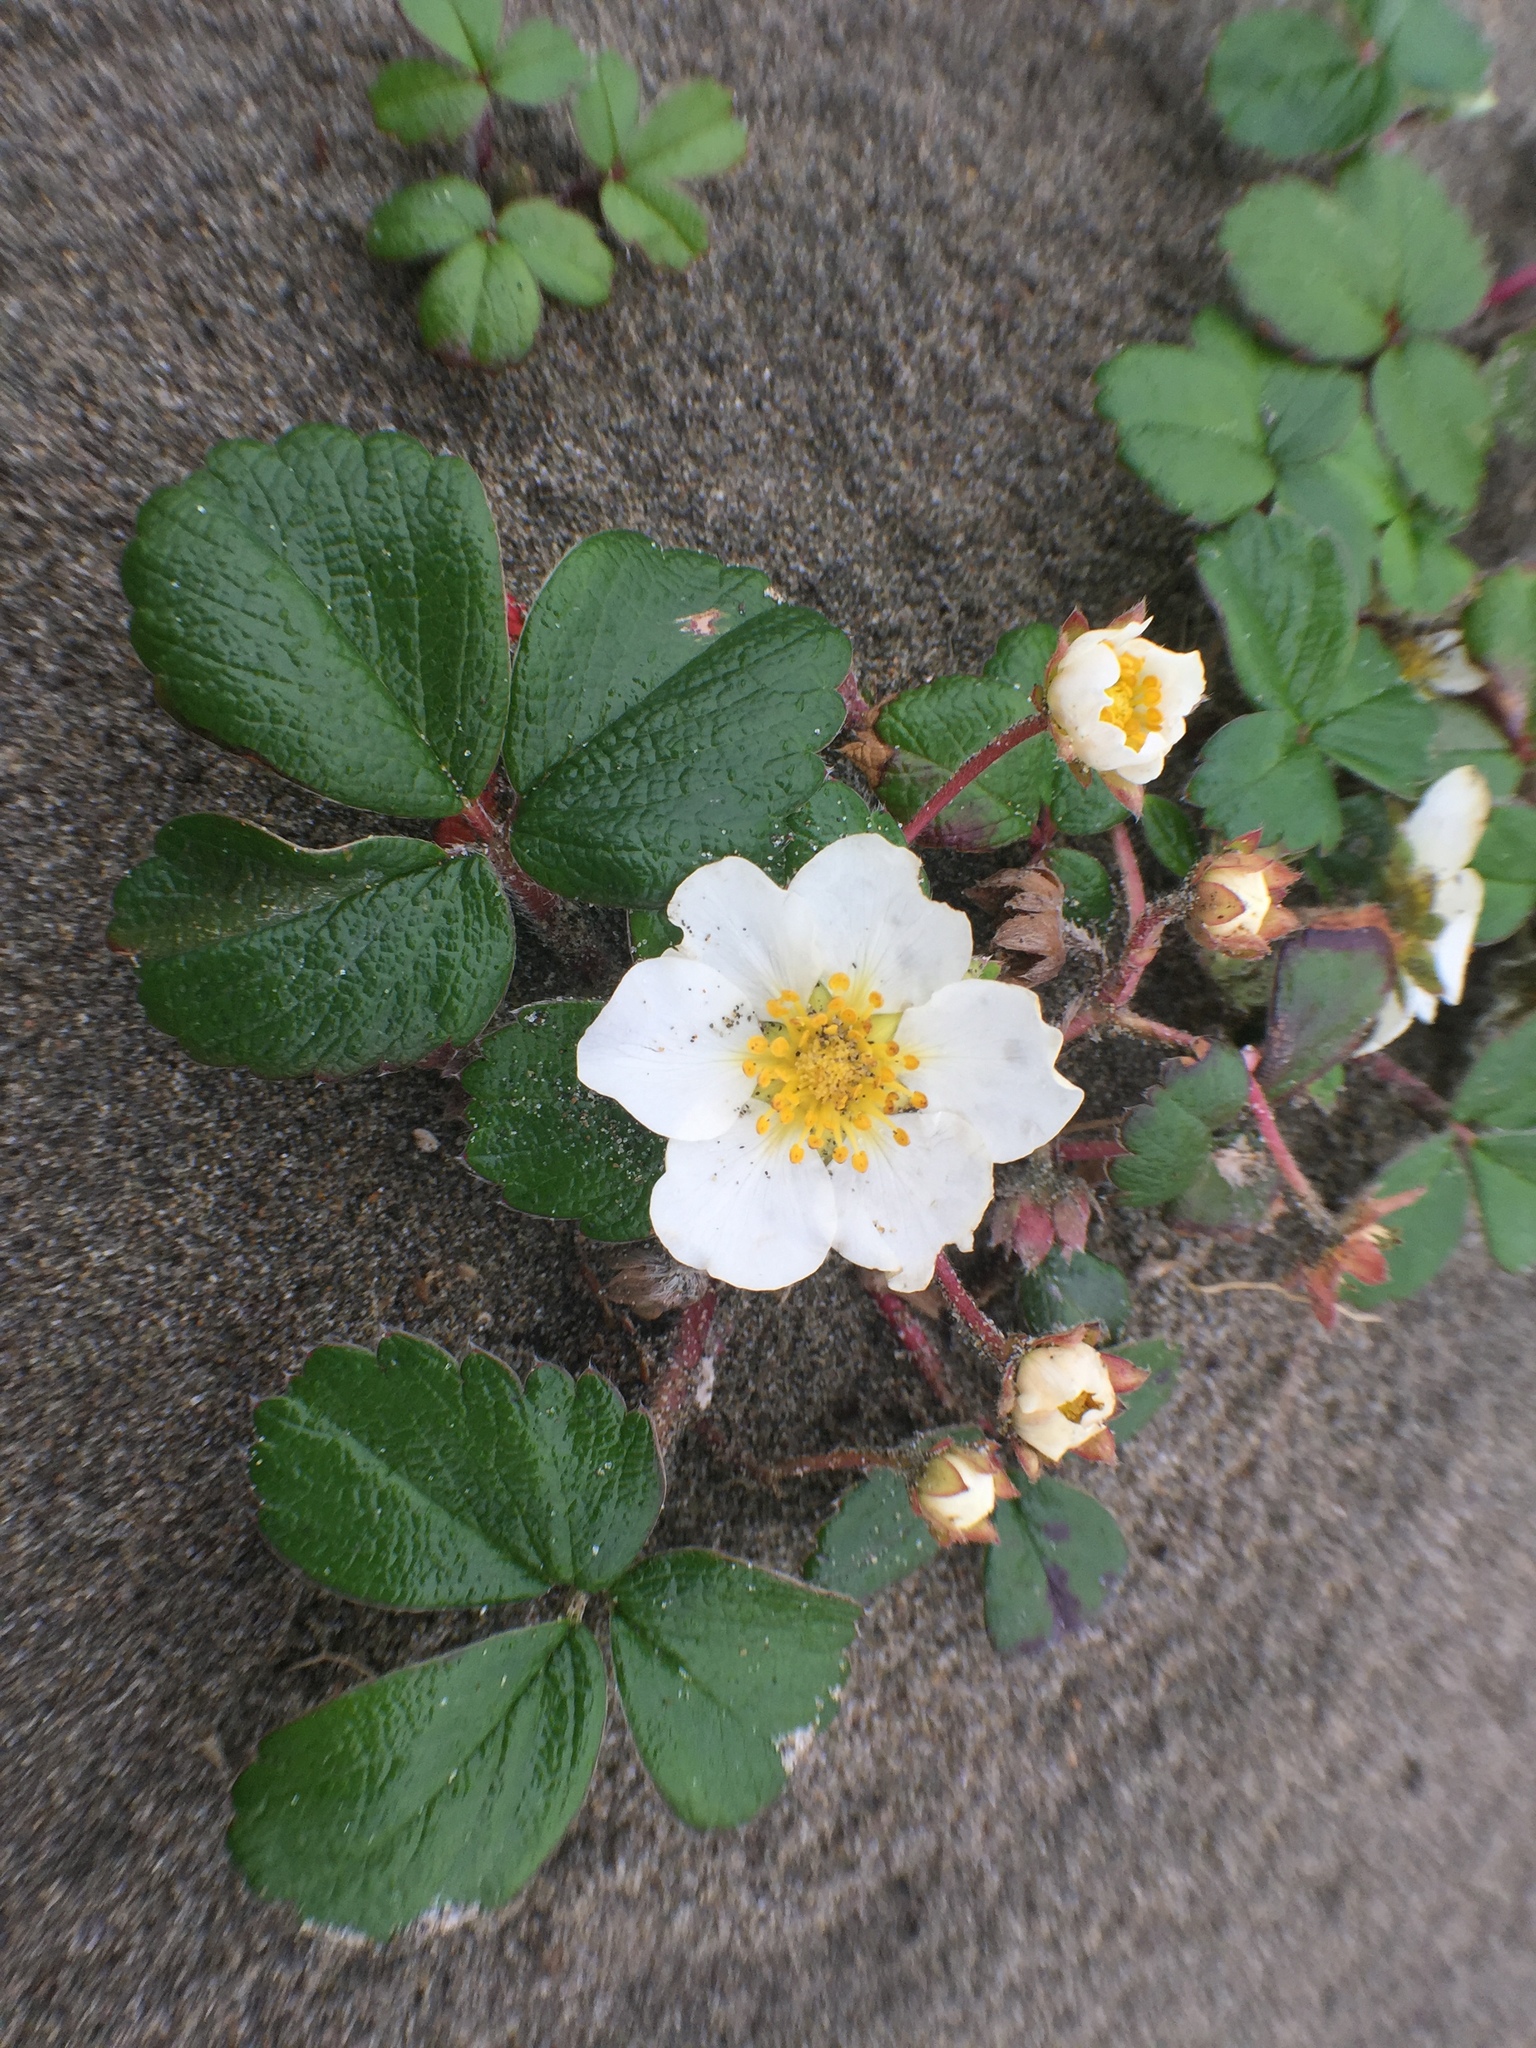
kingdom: Plantae
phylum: Tracheophyta
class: Magnoliopsida
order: Rosales
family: Rosaceae
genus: Fragaria
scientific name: Fragaria chiloensis
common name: Beach strawberry
